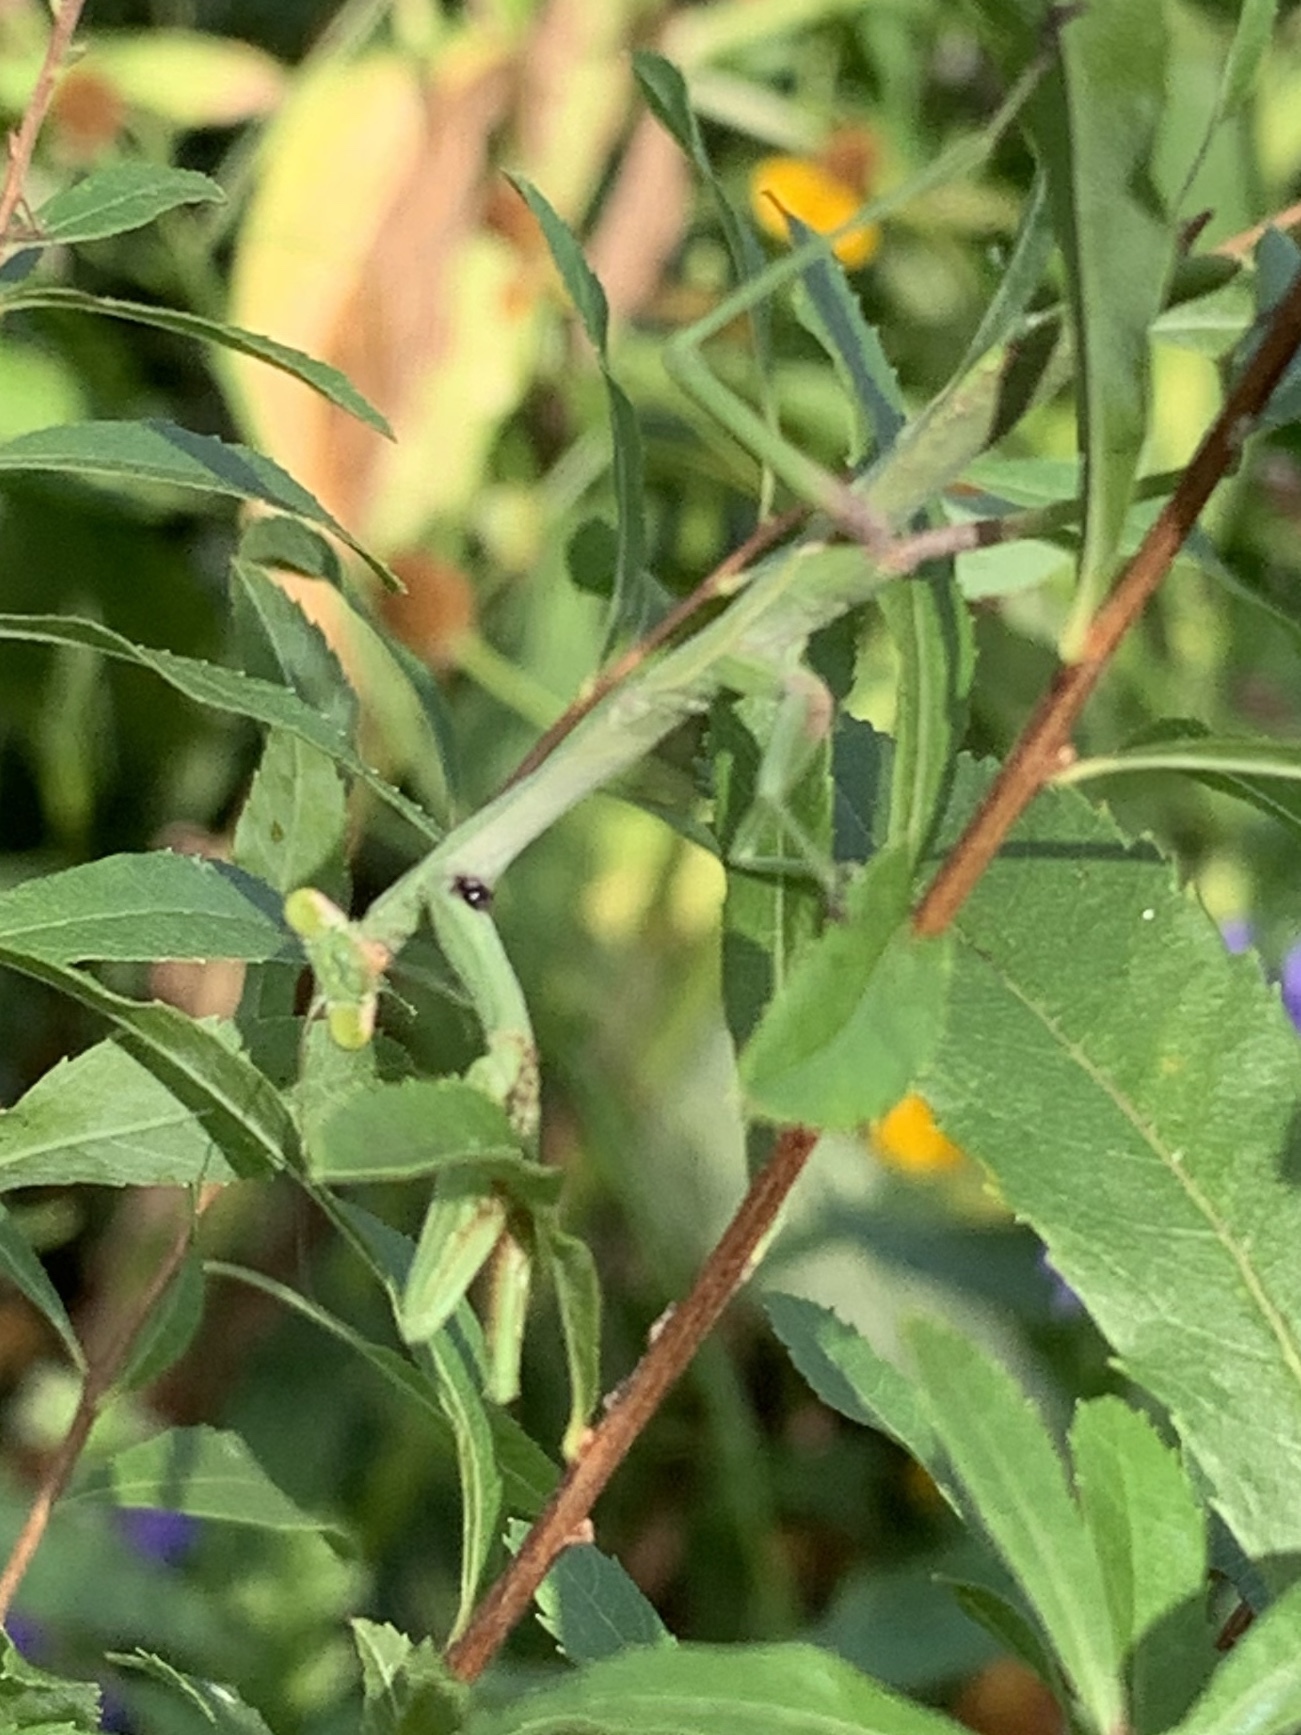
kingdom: Animalia
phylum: Arthropoda
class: Insecta
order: Mantodea
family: Mantidae
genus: Stagmomantis
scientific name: Stagmomantis carolina
